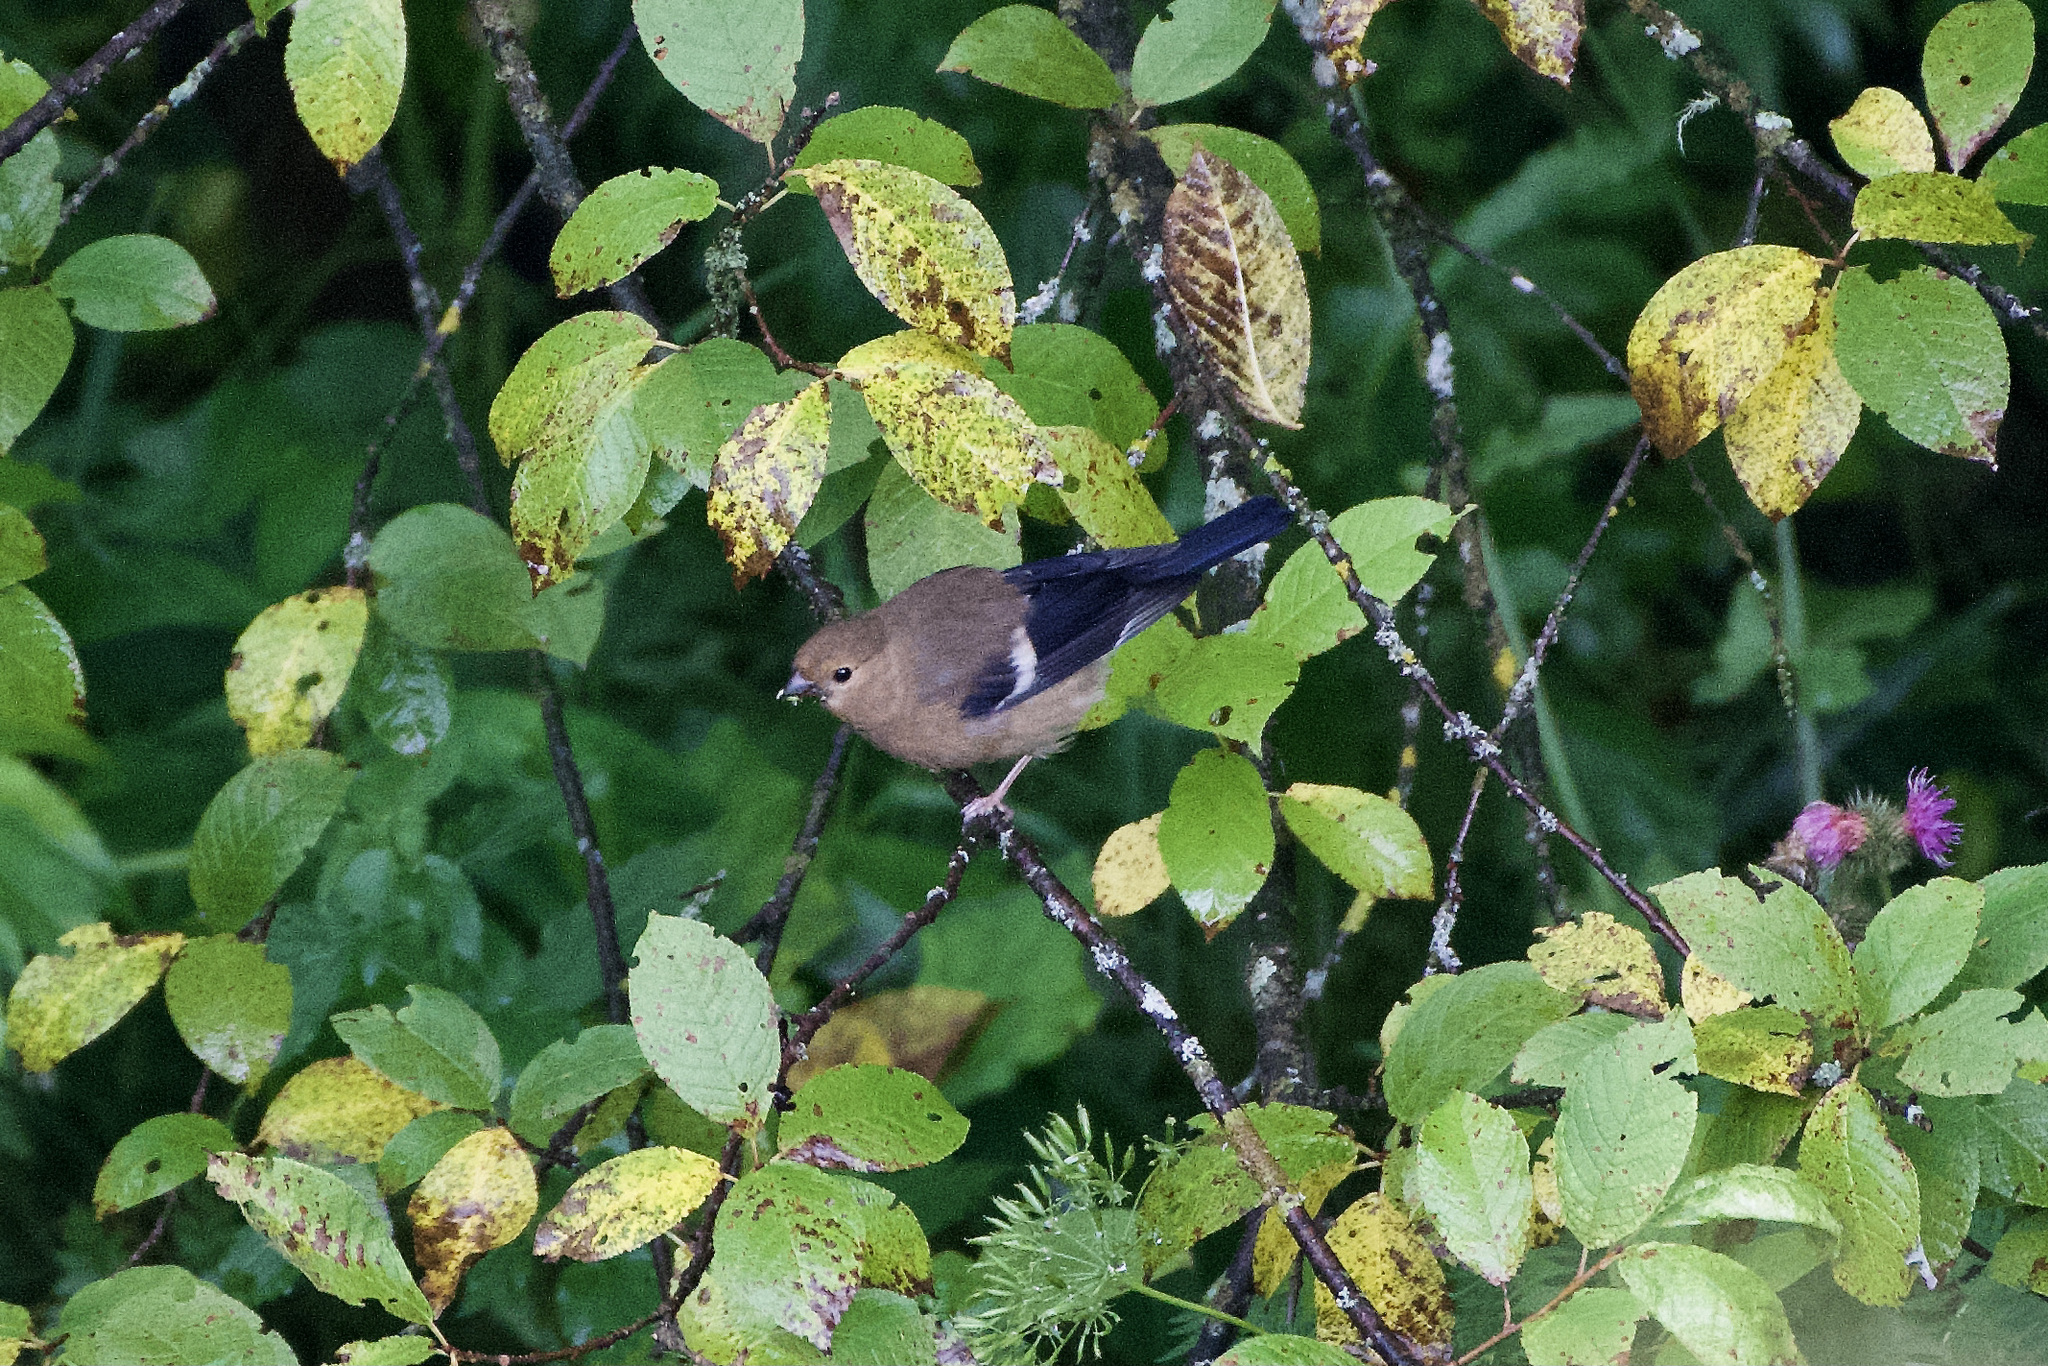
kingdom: Animalia
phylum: Chordata
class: Aves
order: Passeriformes
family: Fringillidae
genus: Pyrrhula
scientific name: Pyrrhula pyrrhula
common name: Eurasian bullfinch
